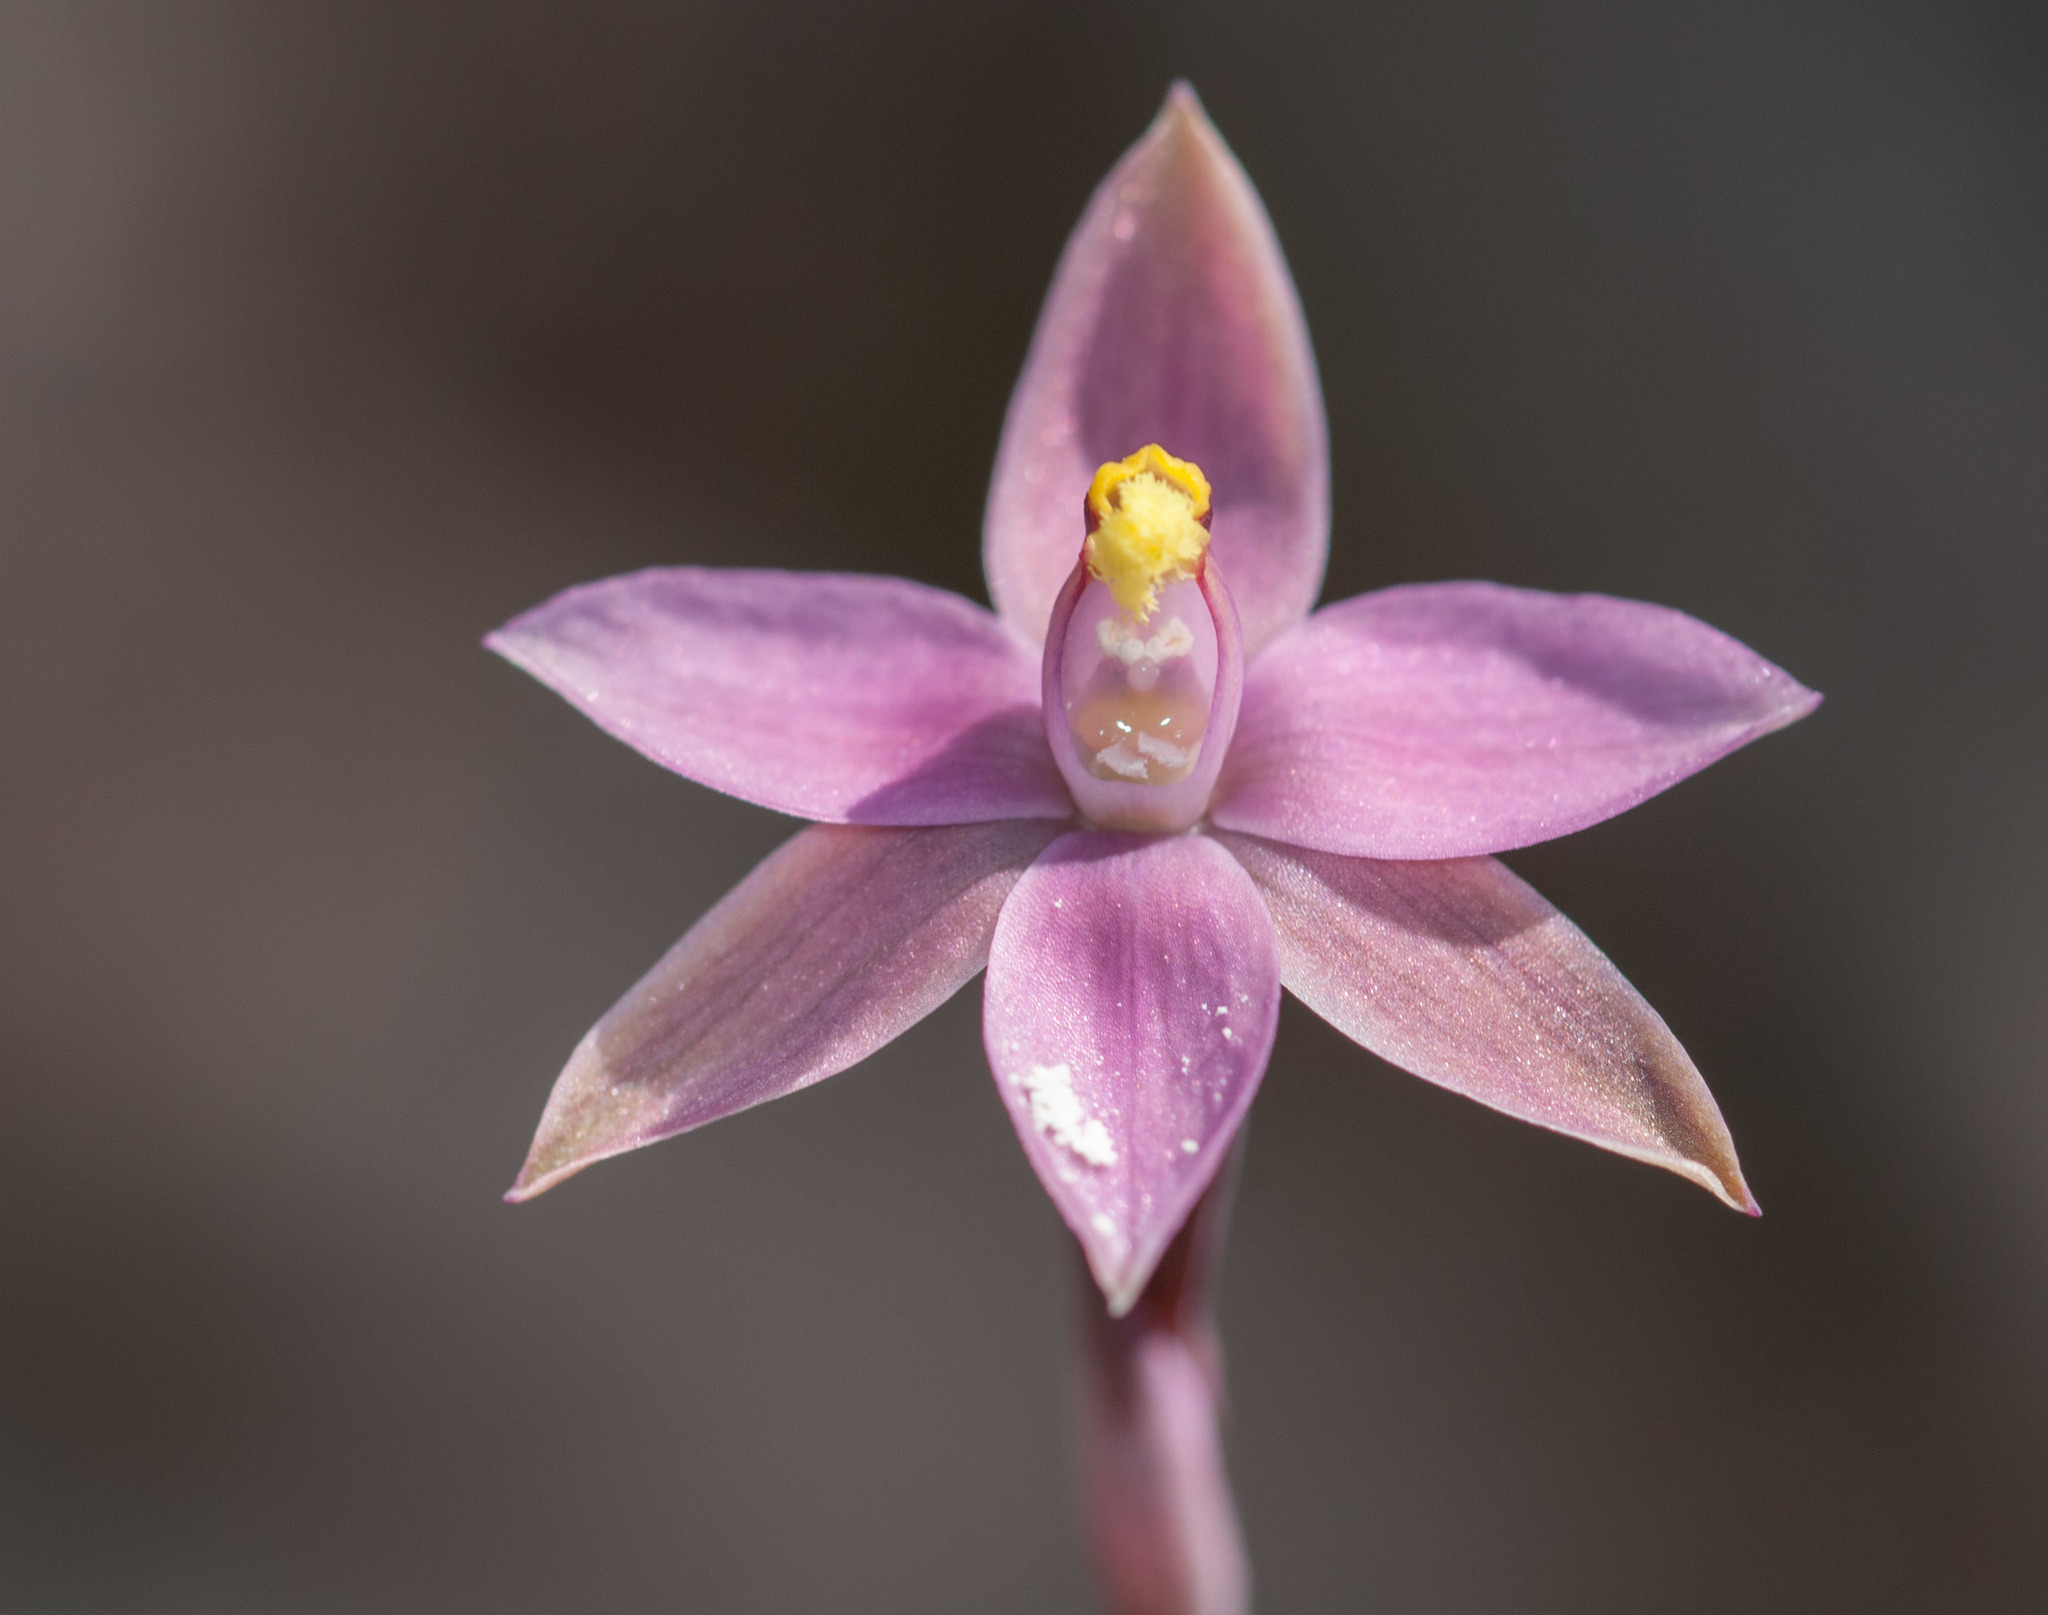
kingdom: Plantae
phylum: Tracheophyta
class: Liliopsida
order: Asparagales
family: Orchidaceae
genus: Thelymitra
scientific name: Thelymitra luteocilium
